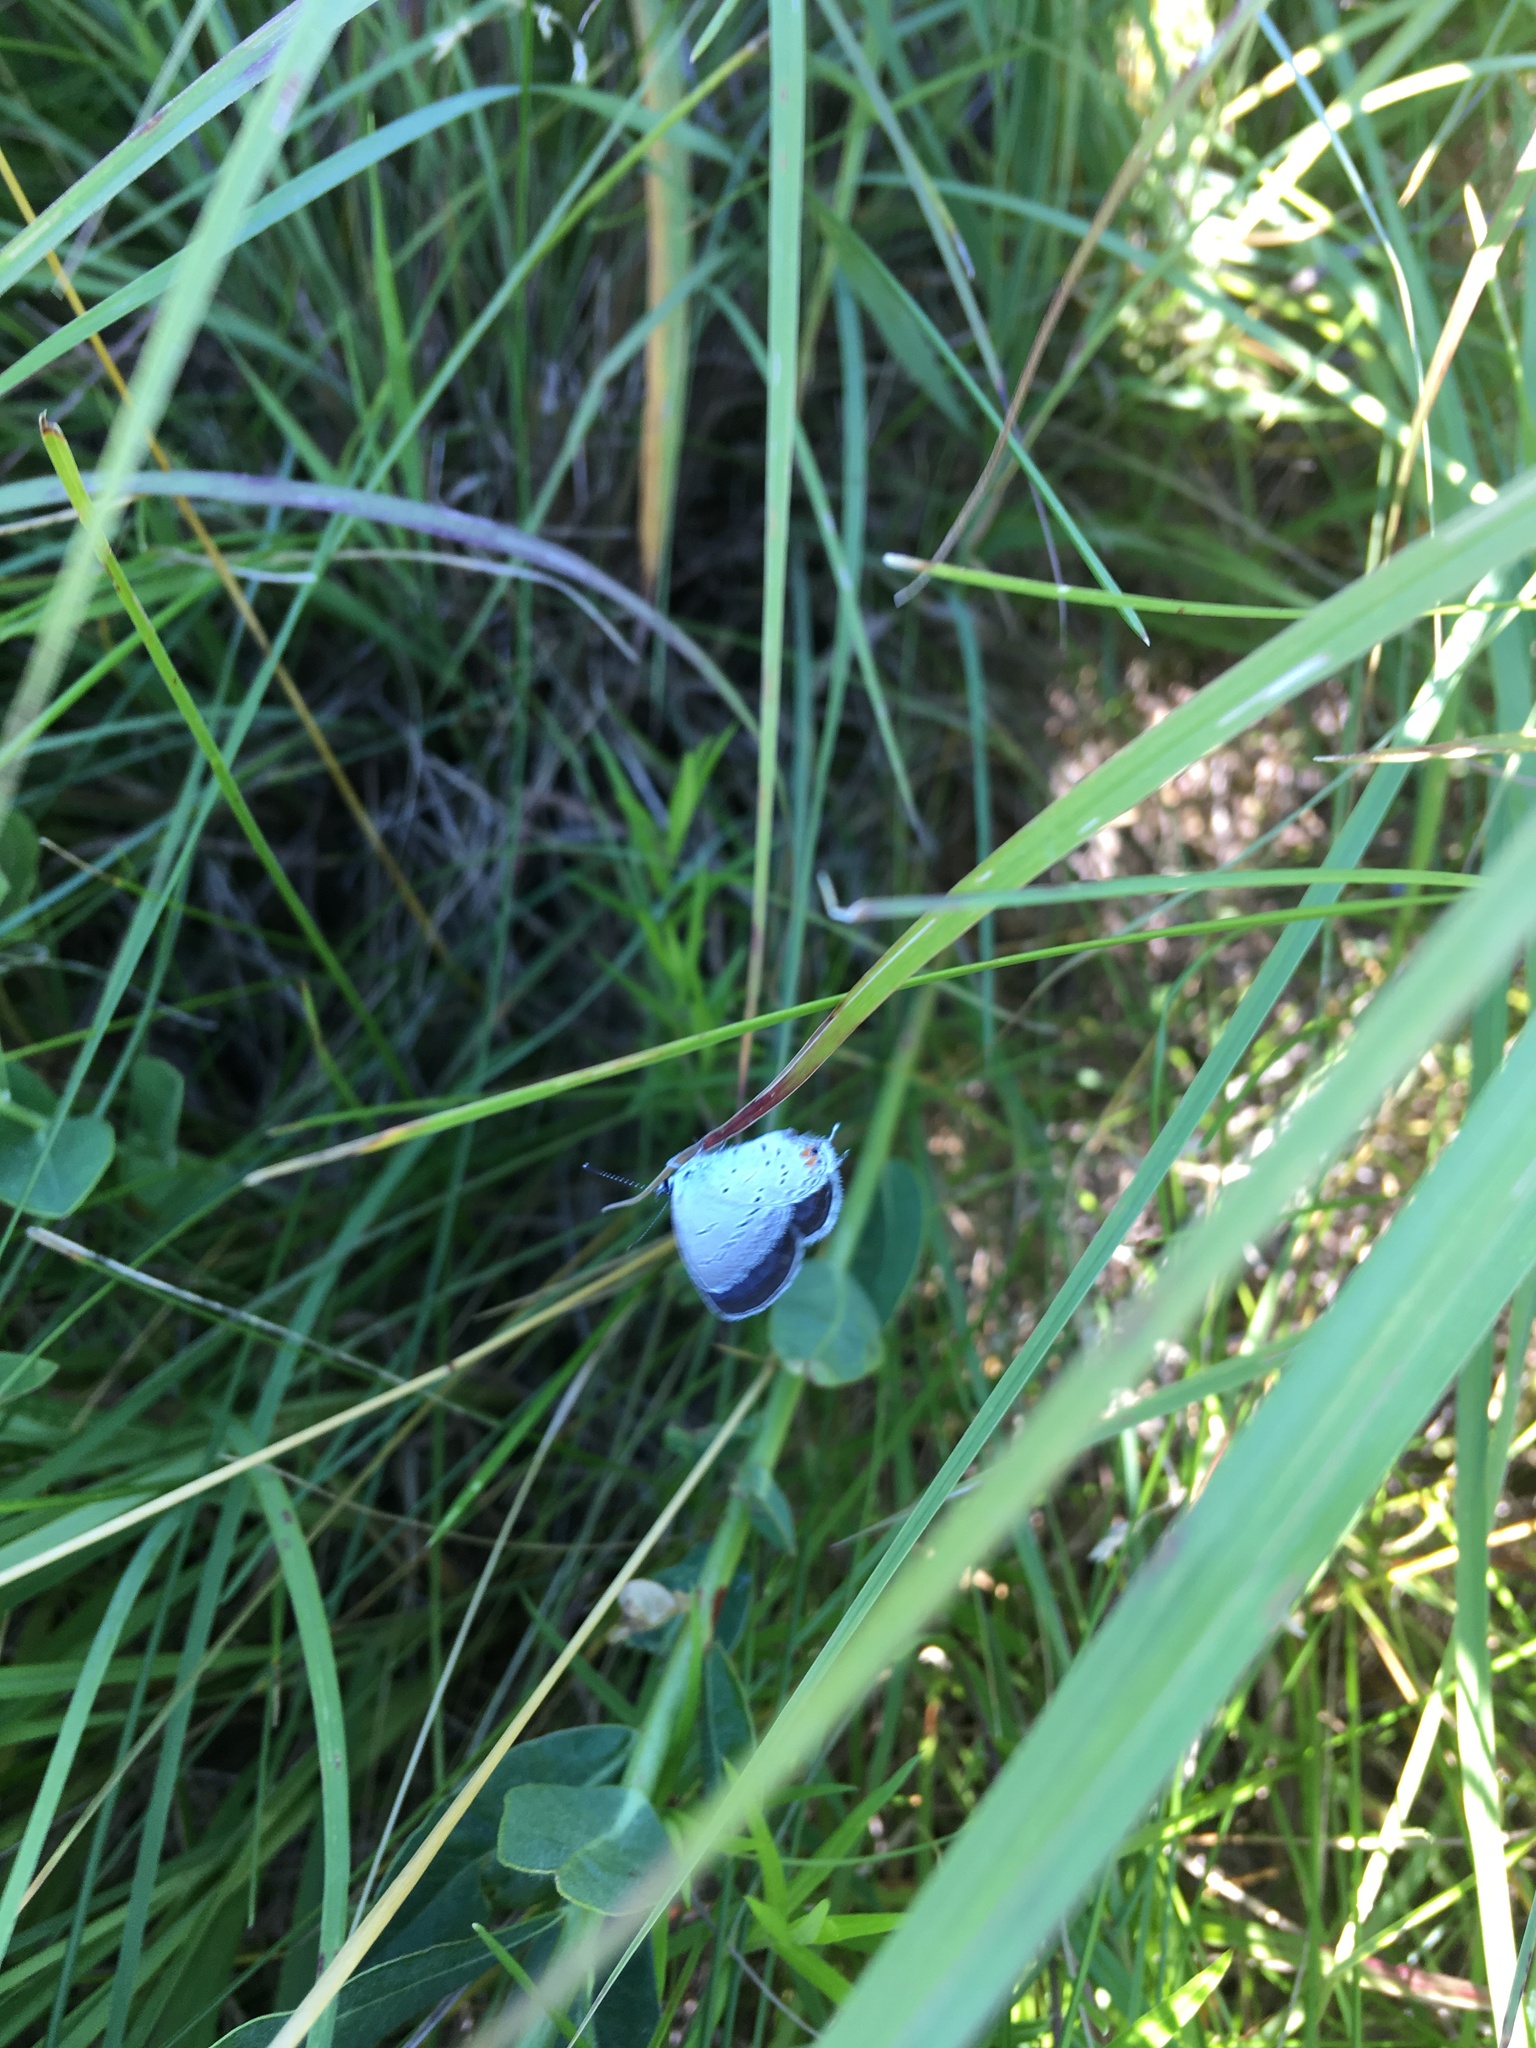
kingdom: Animalia
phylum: Arthropoda
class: Insecta
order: Lepidoptera
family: Lycaenidae
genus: Elkalyce
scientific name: Elkalyce comyntas
